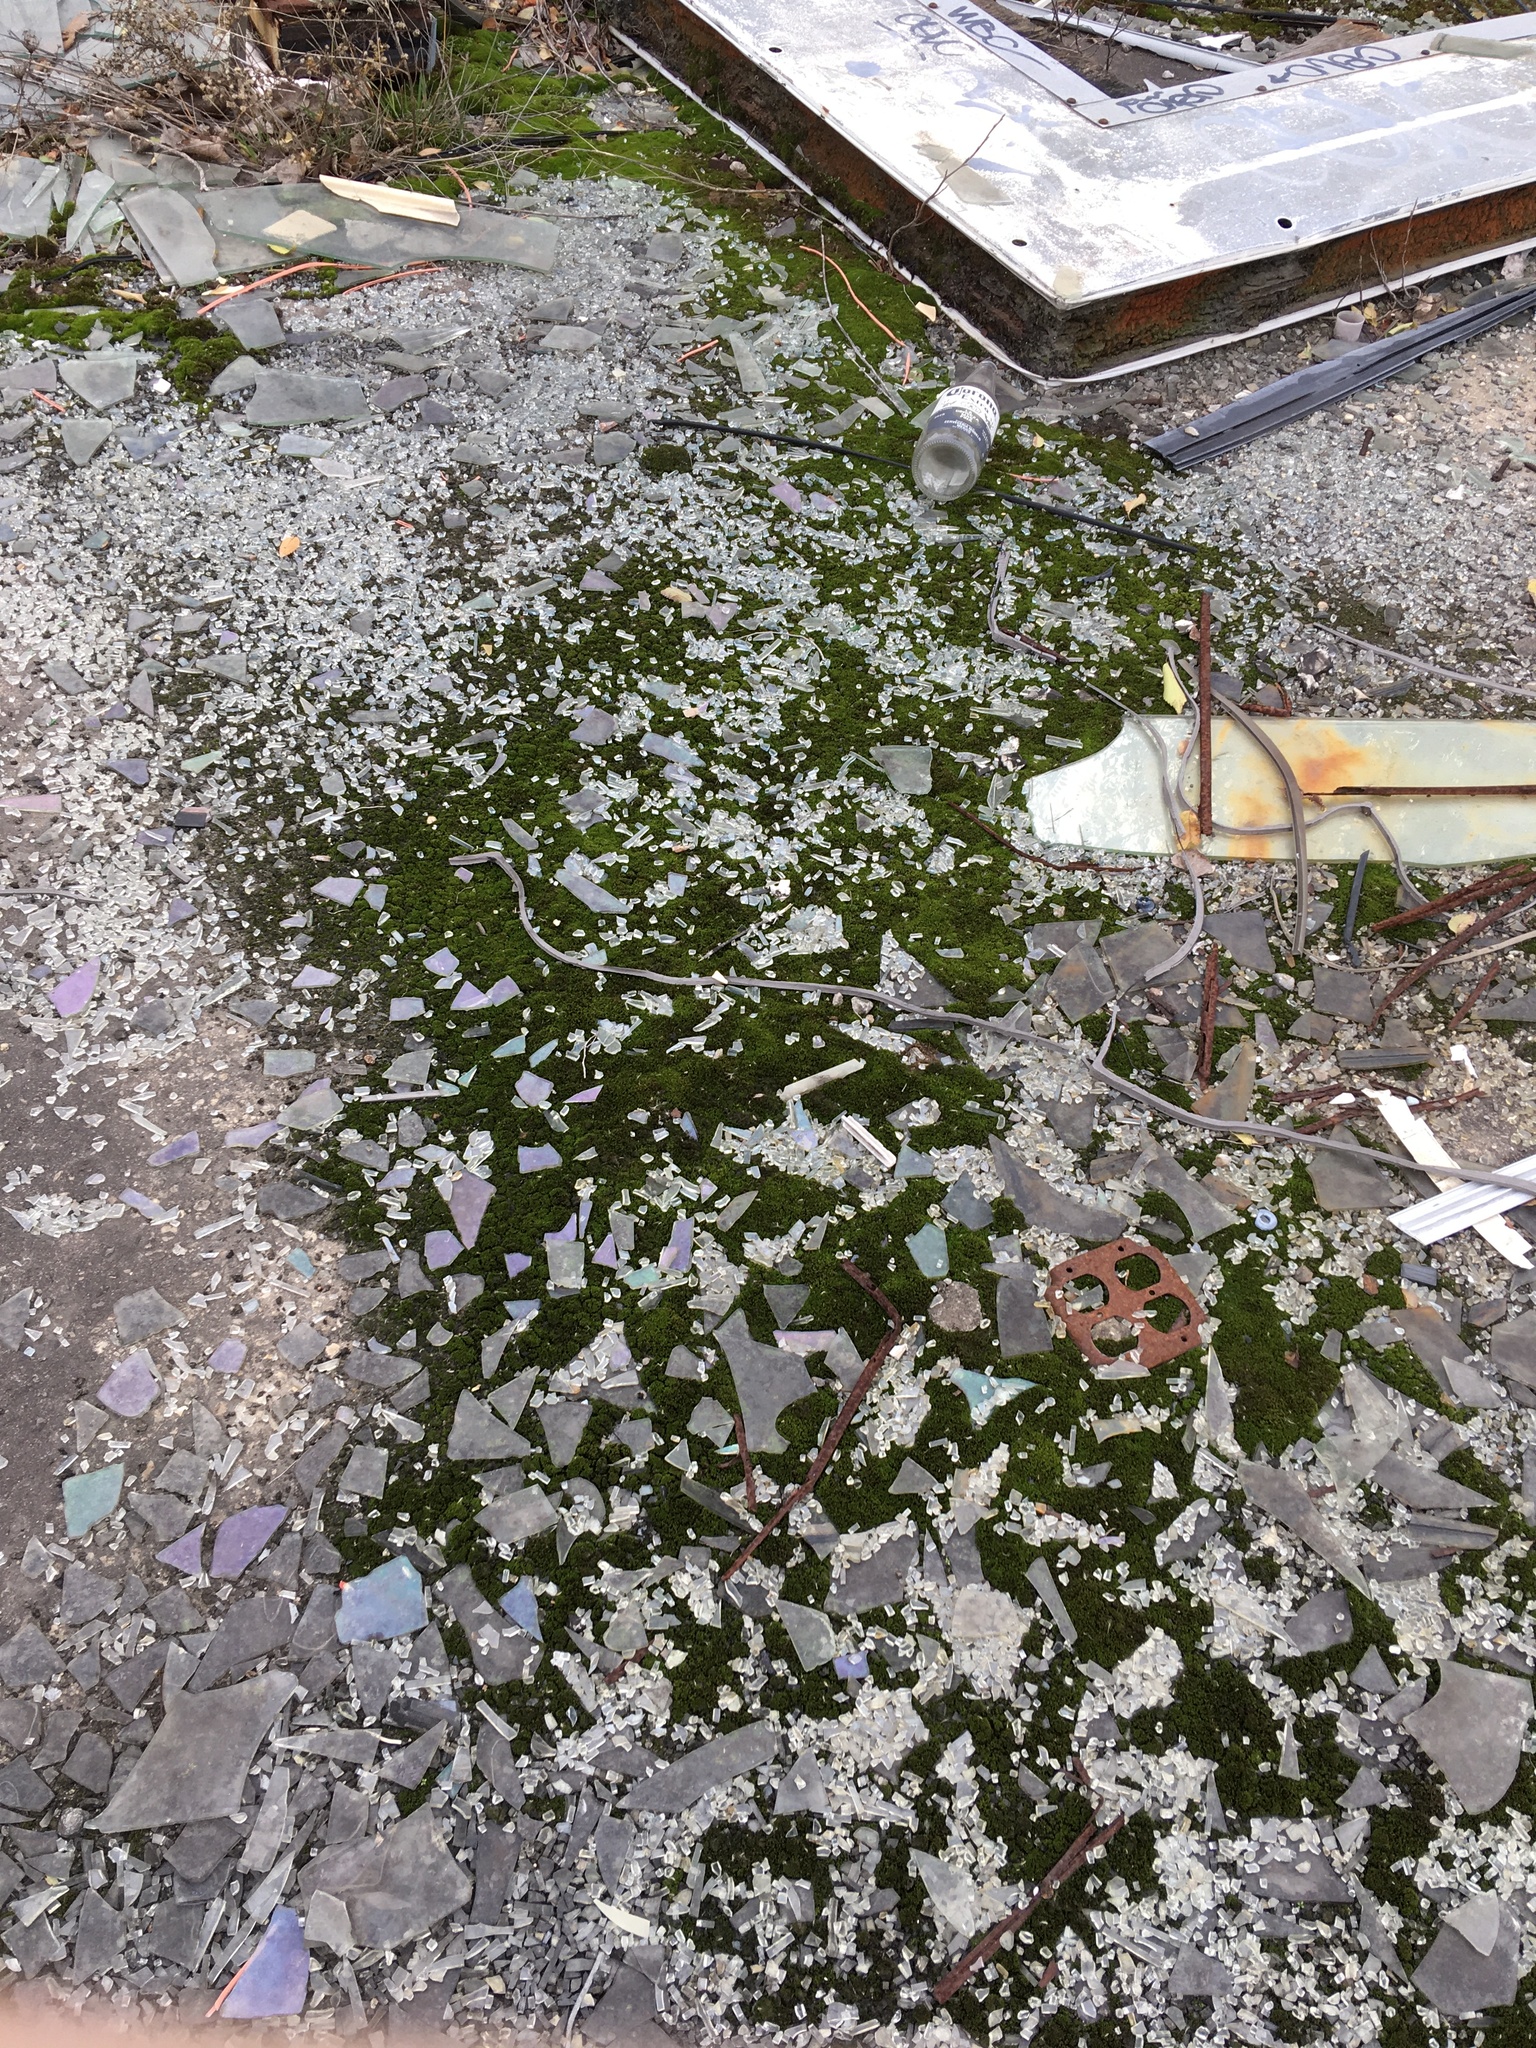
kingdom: Plantae
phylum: Bryophyta
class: Bryopsida
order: Dicranales
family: Dicranaceae
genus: Dicranum
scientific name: Dicranum scoparium
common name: Broom fork-moss
